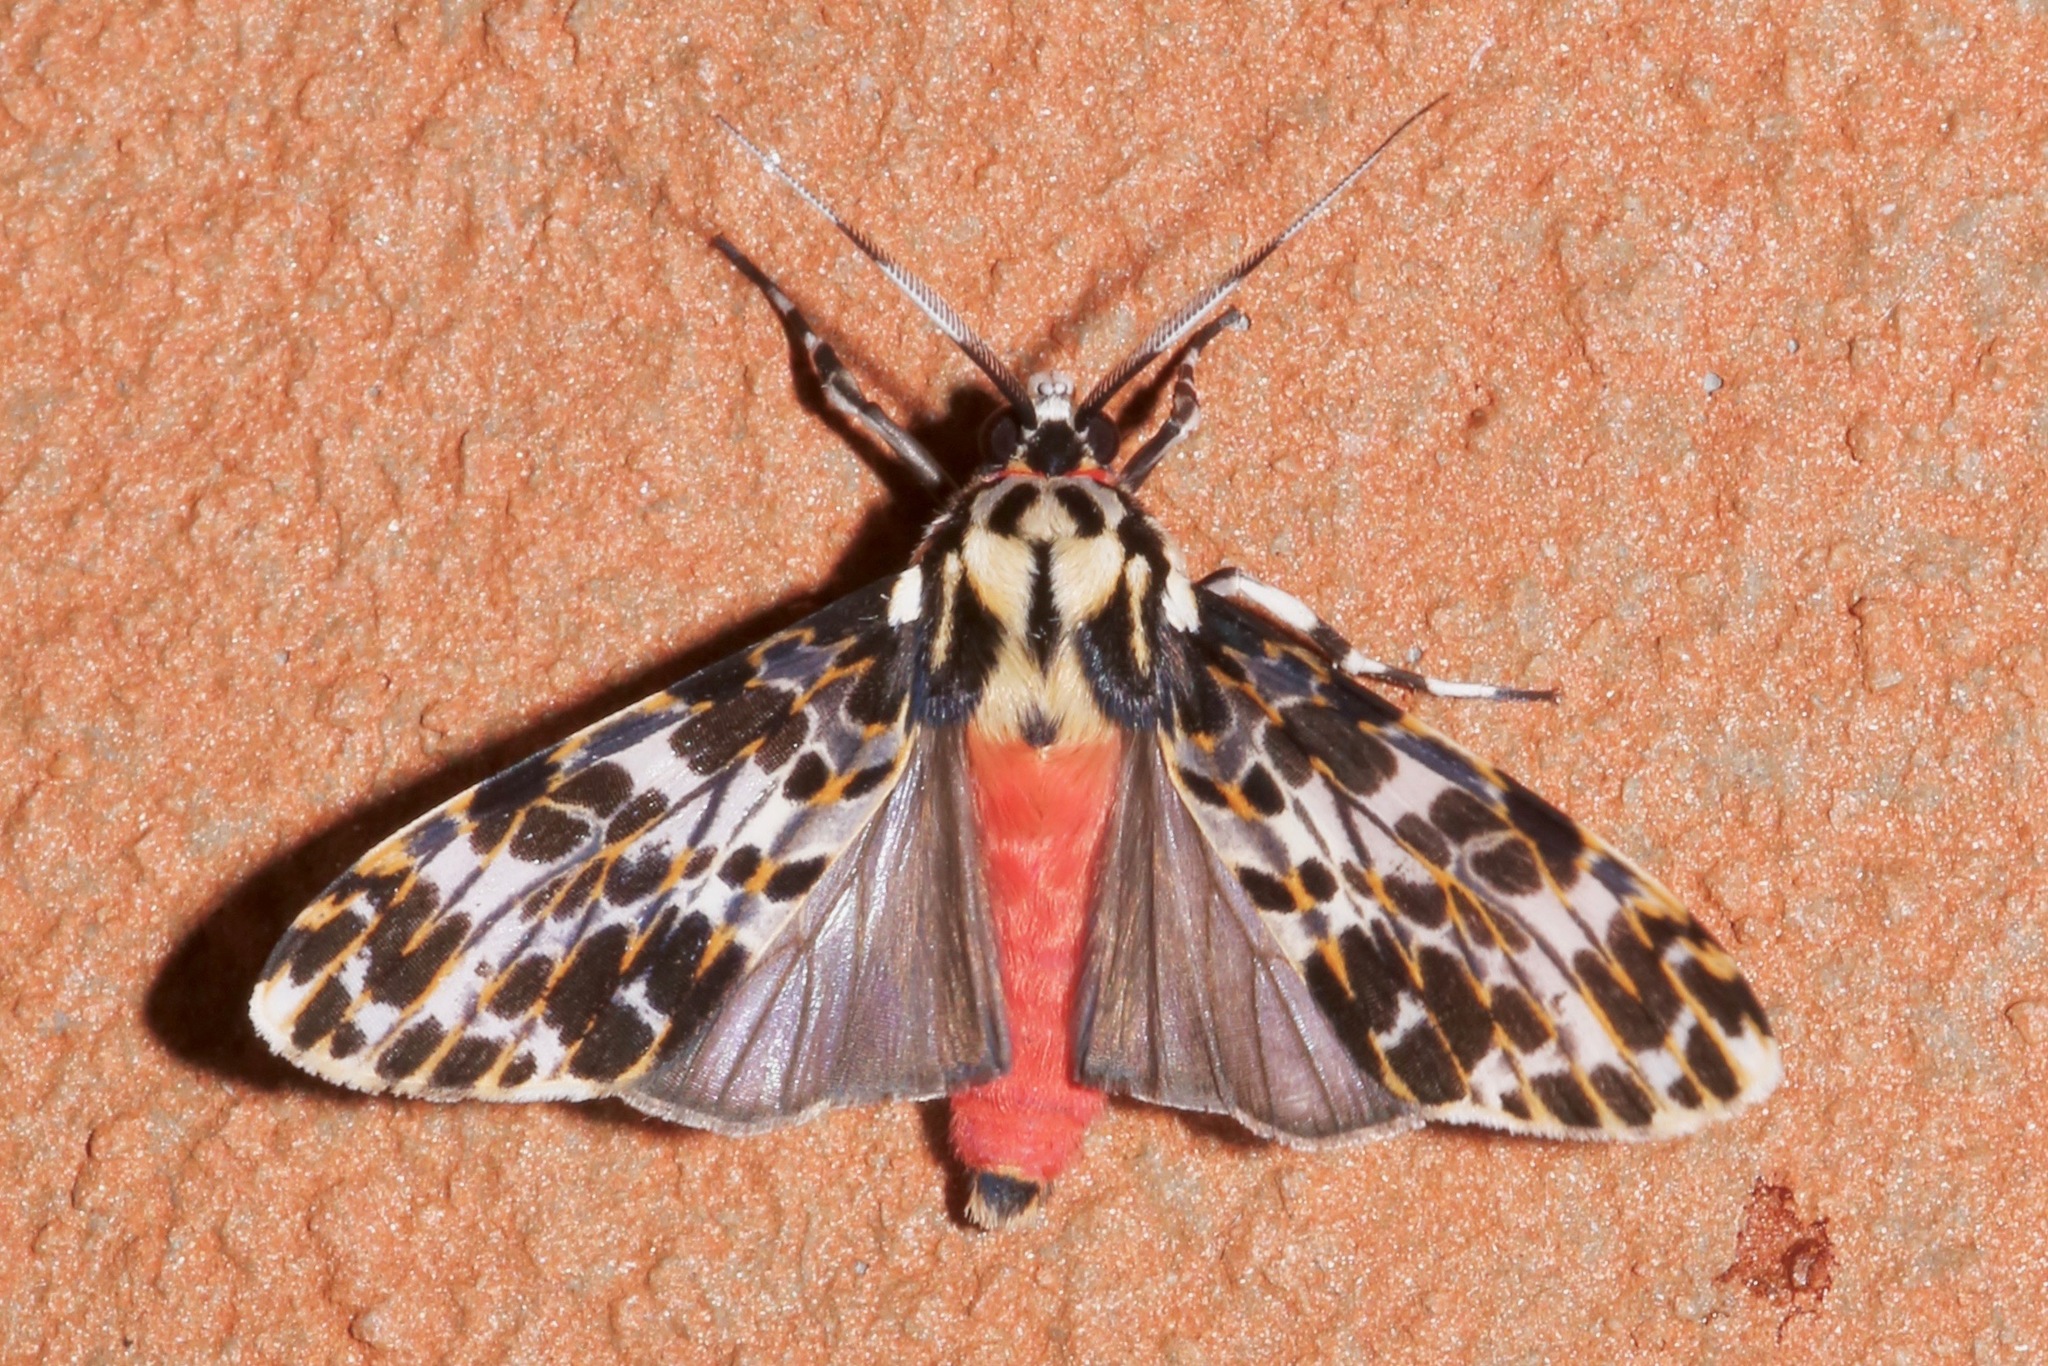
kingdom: Animalia
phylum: Arthropoda
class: Insecta
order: Lepidoptera
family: Erebidae
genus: Eucereon
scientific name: Eucereon tarona
